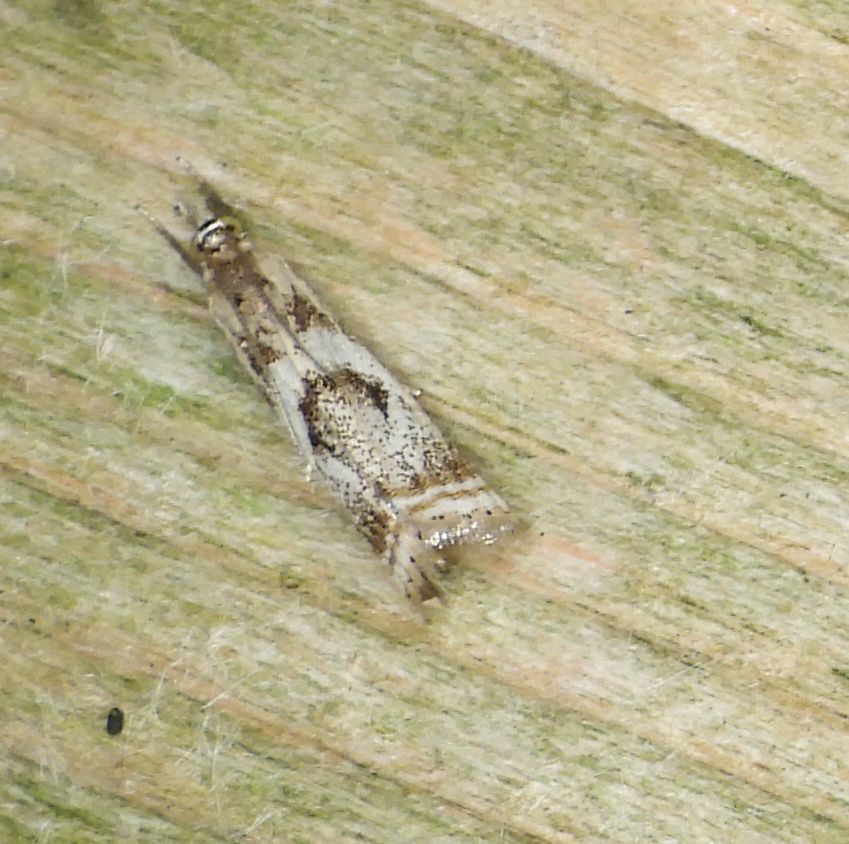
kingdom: Animalia
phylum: Arthropoda
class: Insecta
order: Lepidoptera
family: Crambidae
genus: Microcrambus
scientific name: Microcrambus elegans
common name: Elegant grass-veneer
